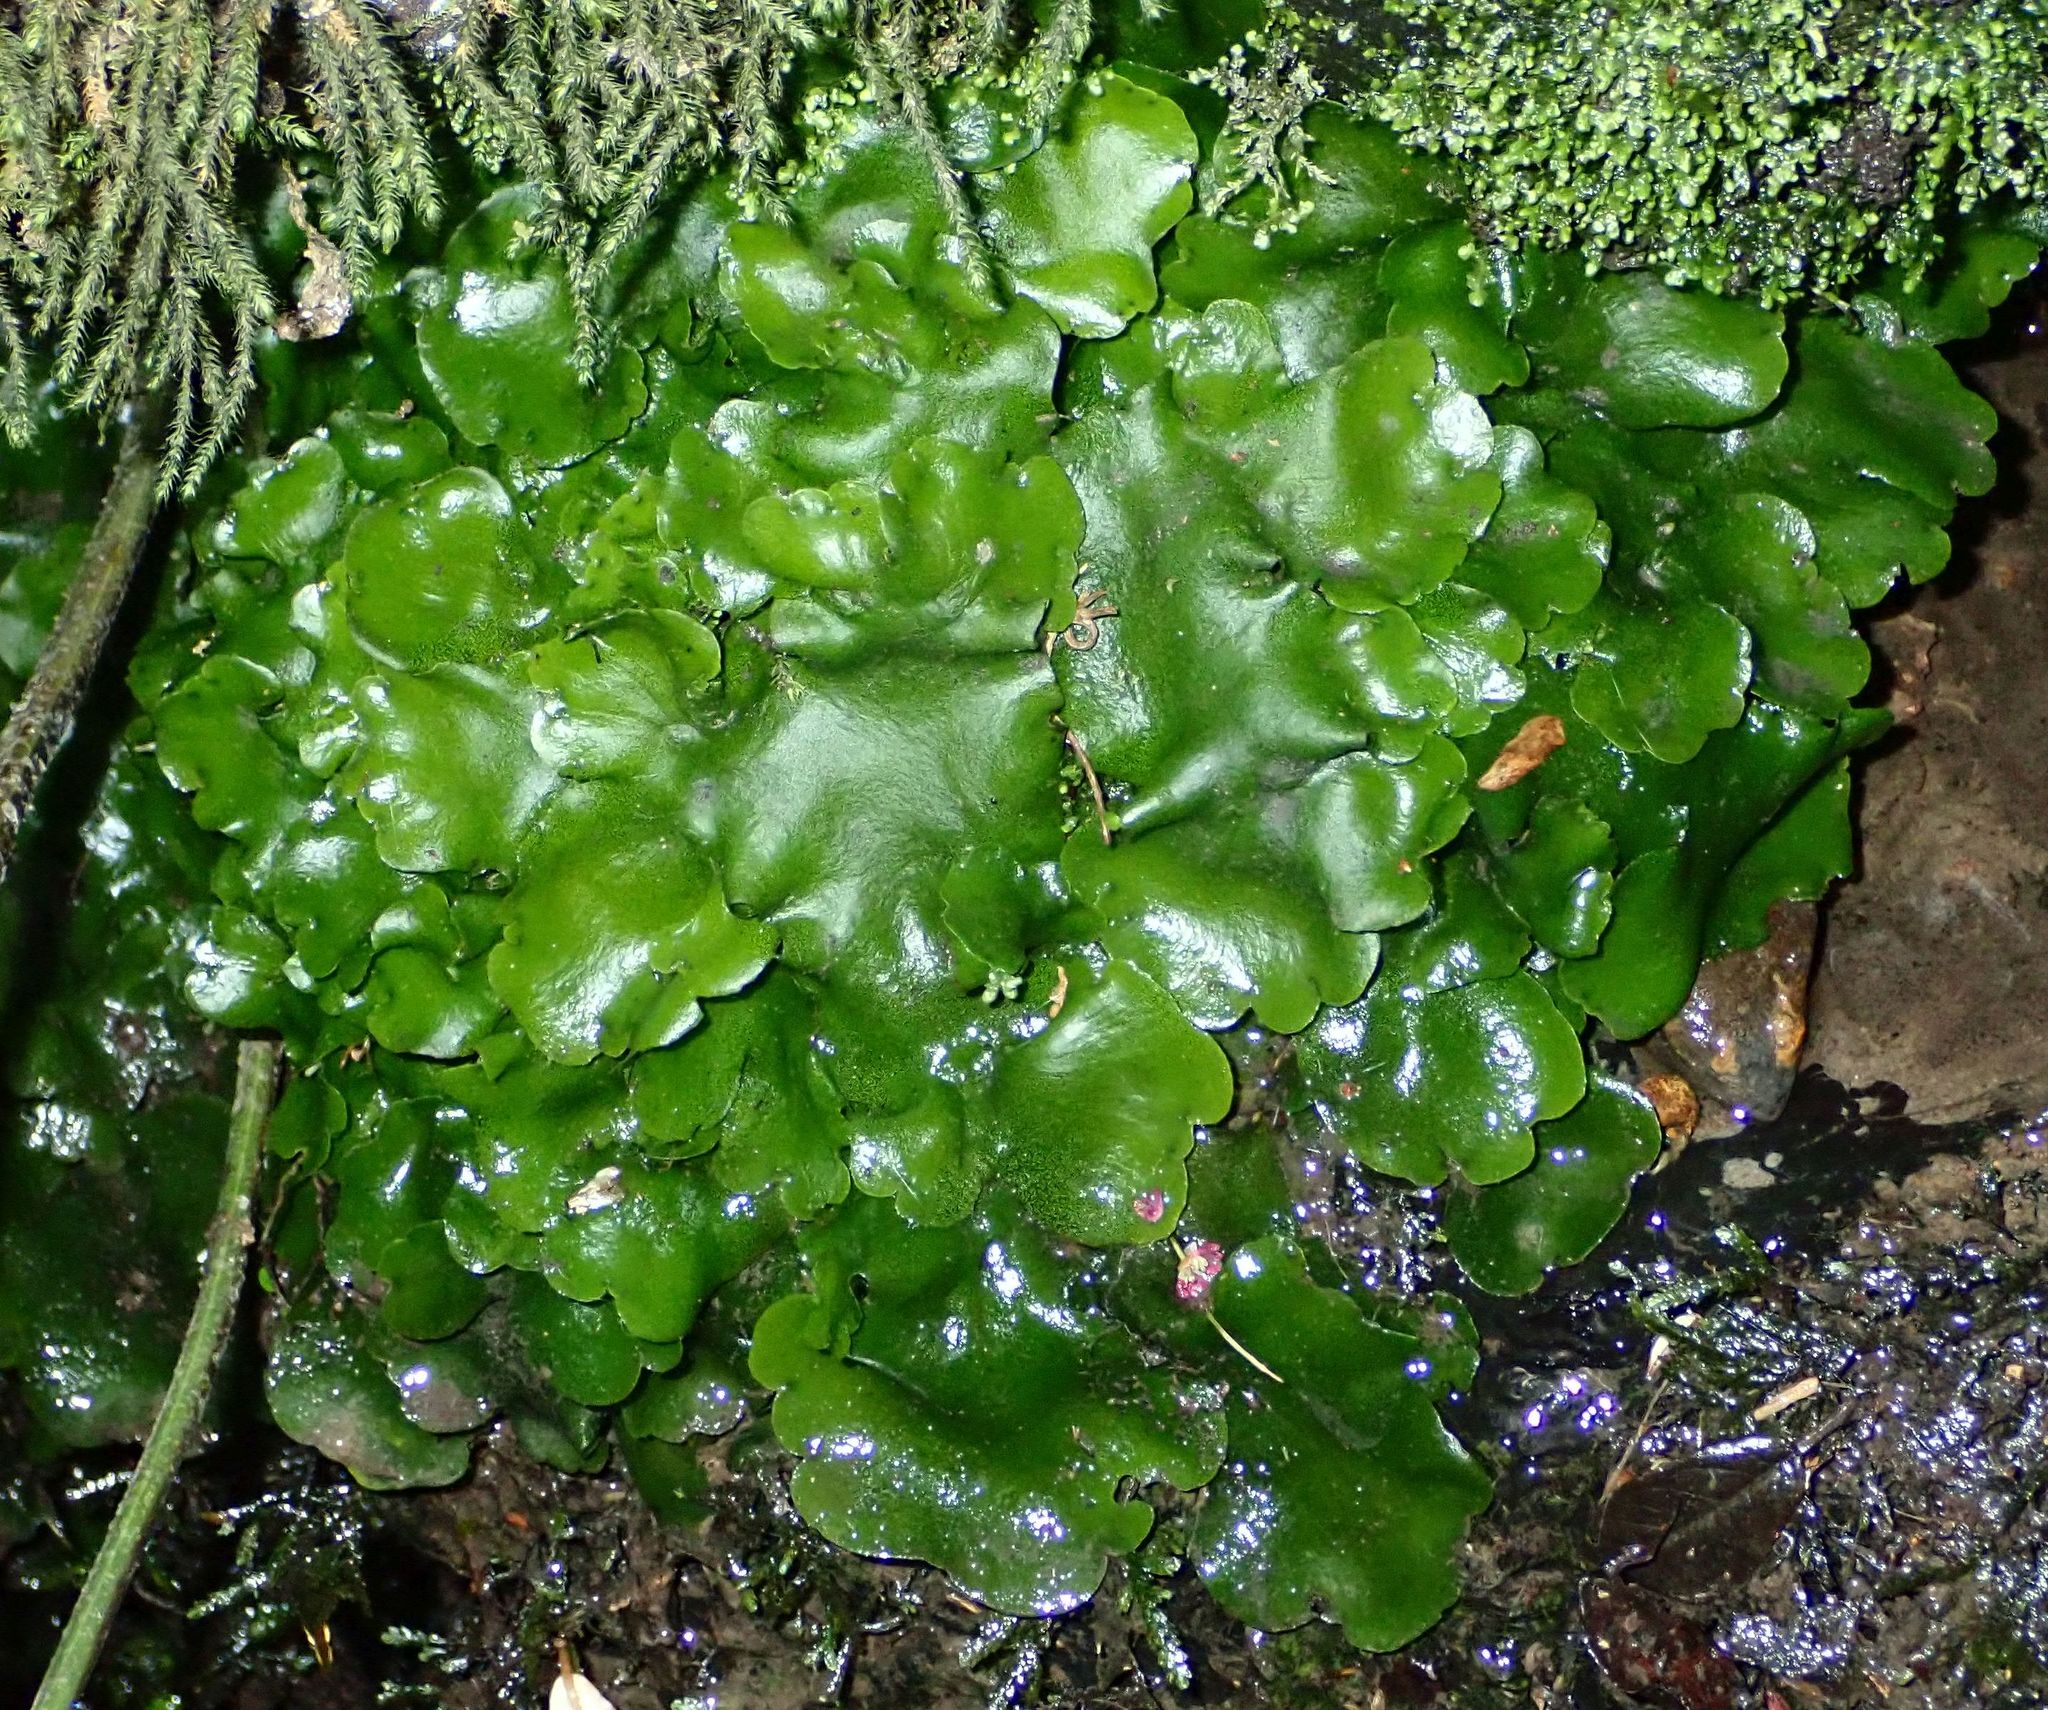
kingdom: Plantae
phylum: Marchantiophyta
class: Marchantiopsida
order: Marchantiales
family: Monocleaceae
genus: Monoclea
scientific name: Monoclea forsteri
